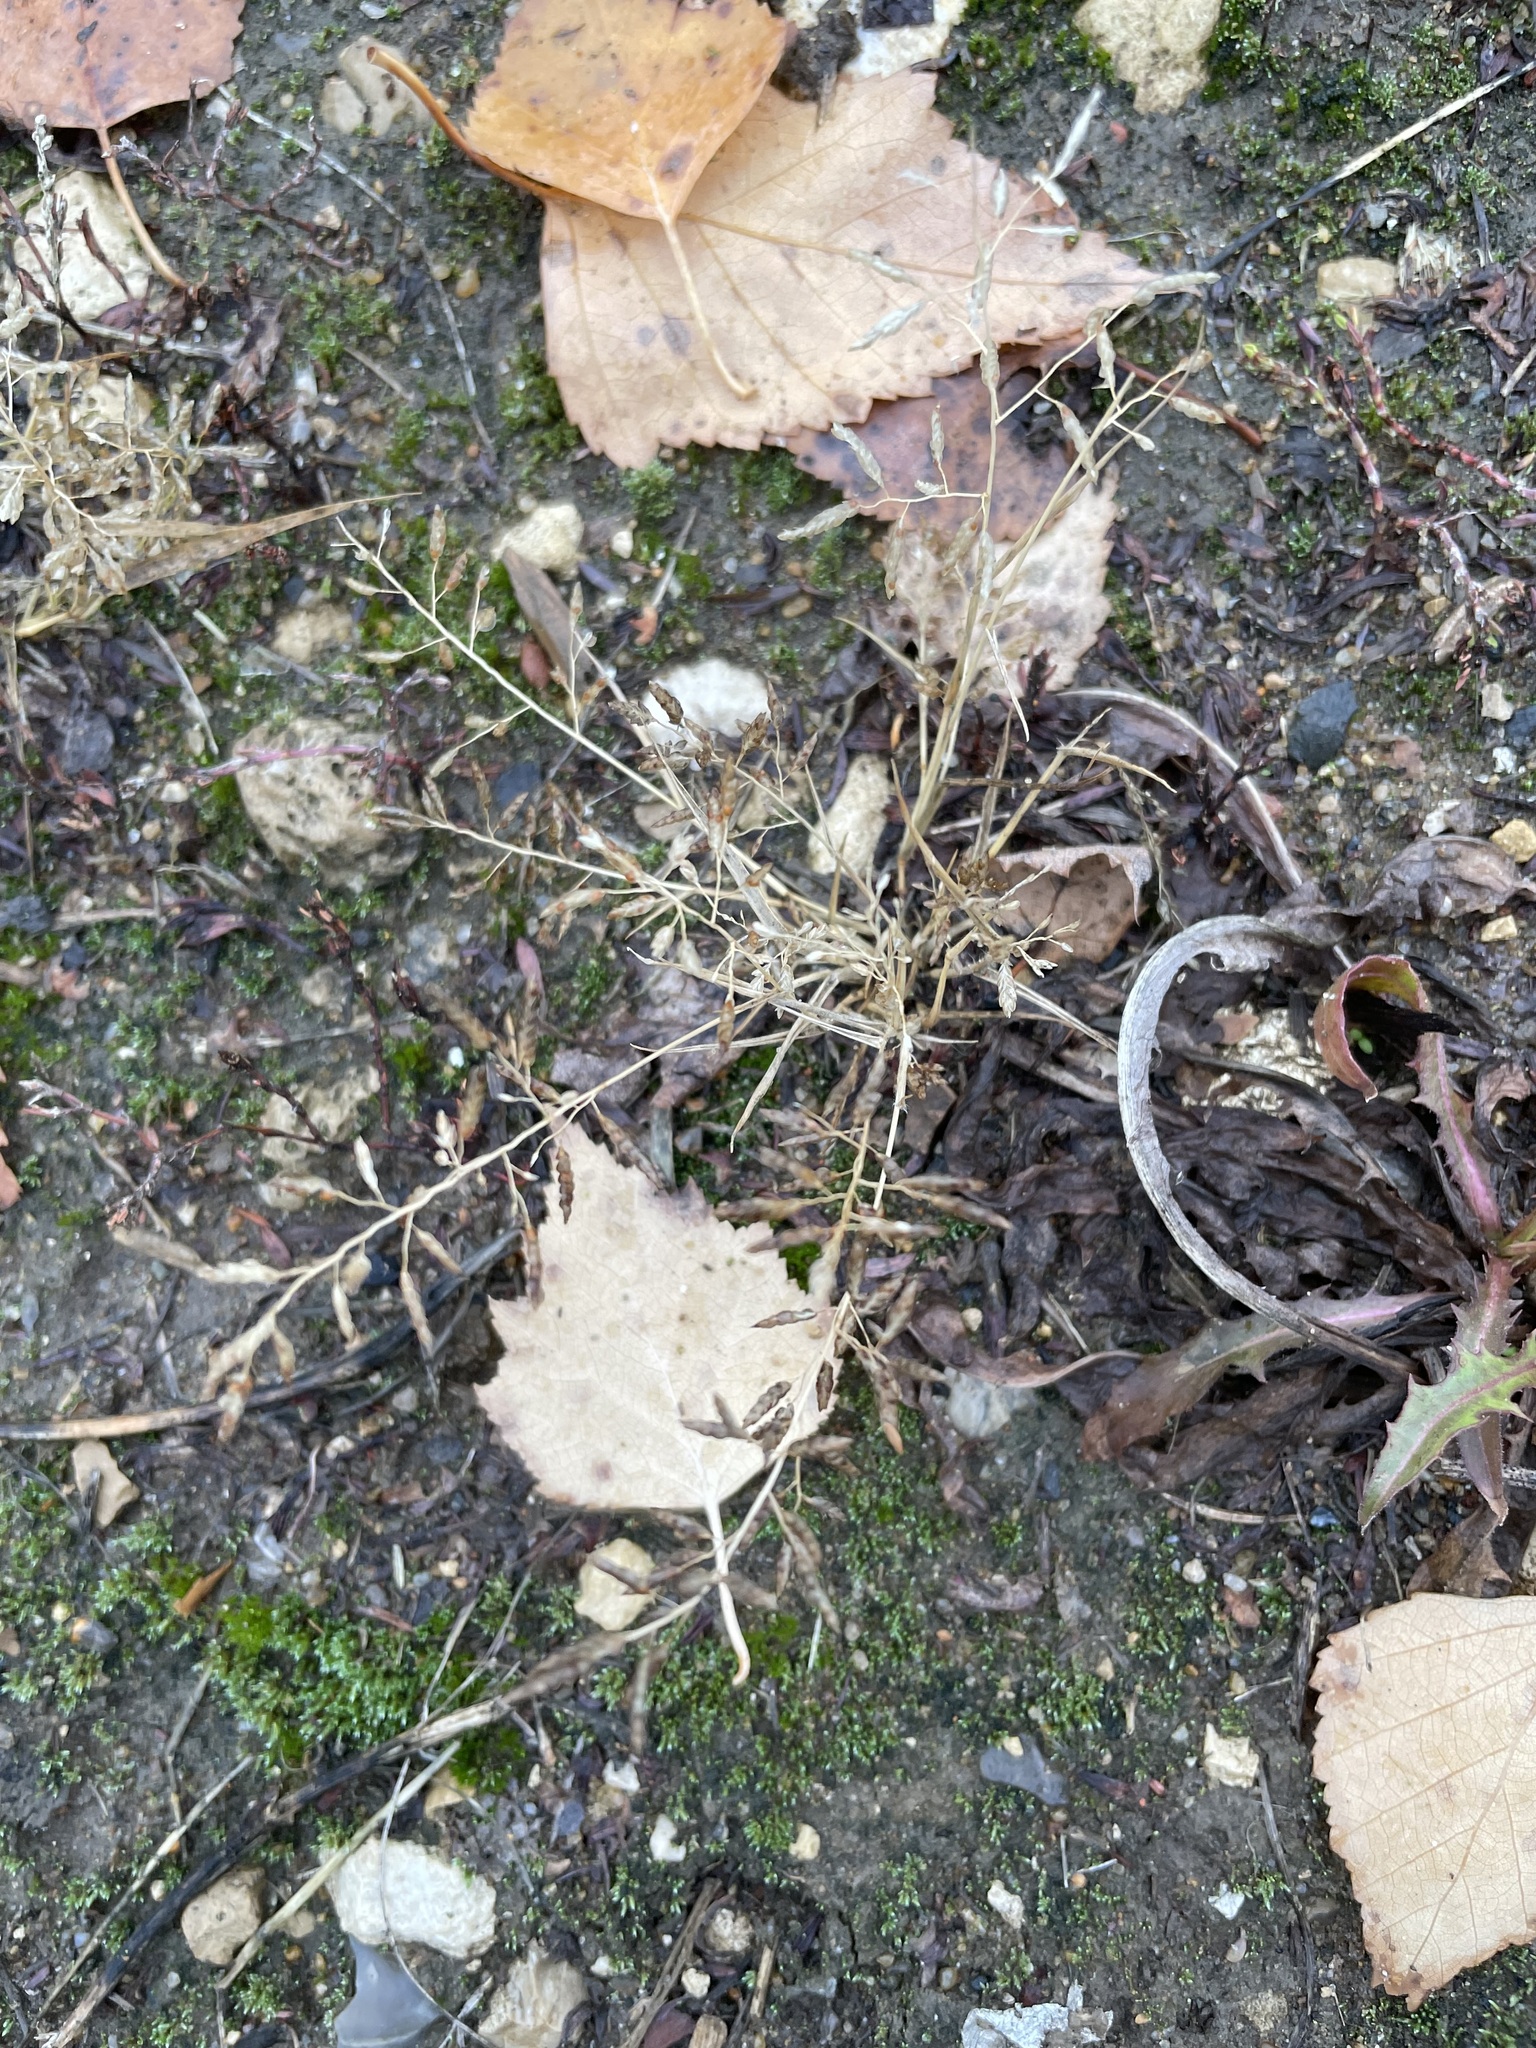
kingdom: Plantae
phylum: Tracheophyta
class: Liliopsida
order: Poales
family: Poaceae
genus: Eragrostis
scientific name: Eragrostis minor
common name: Small love-grass
